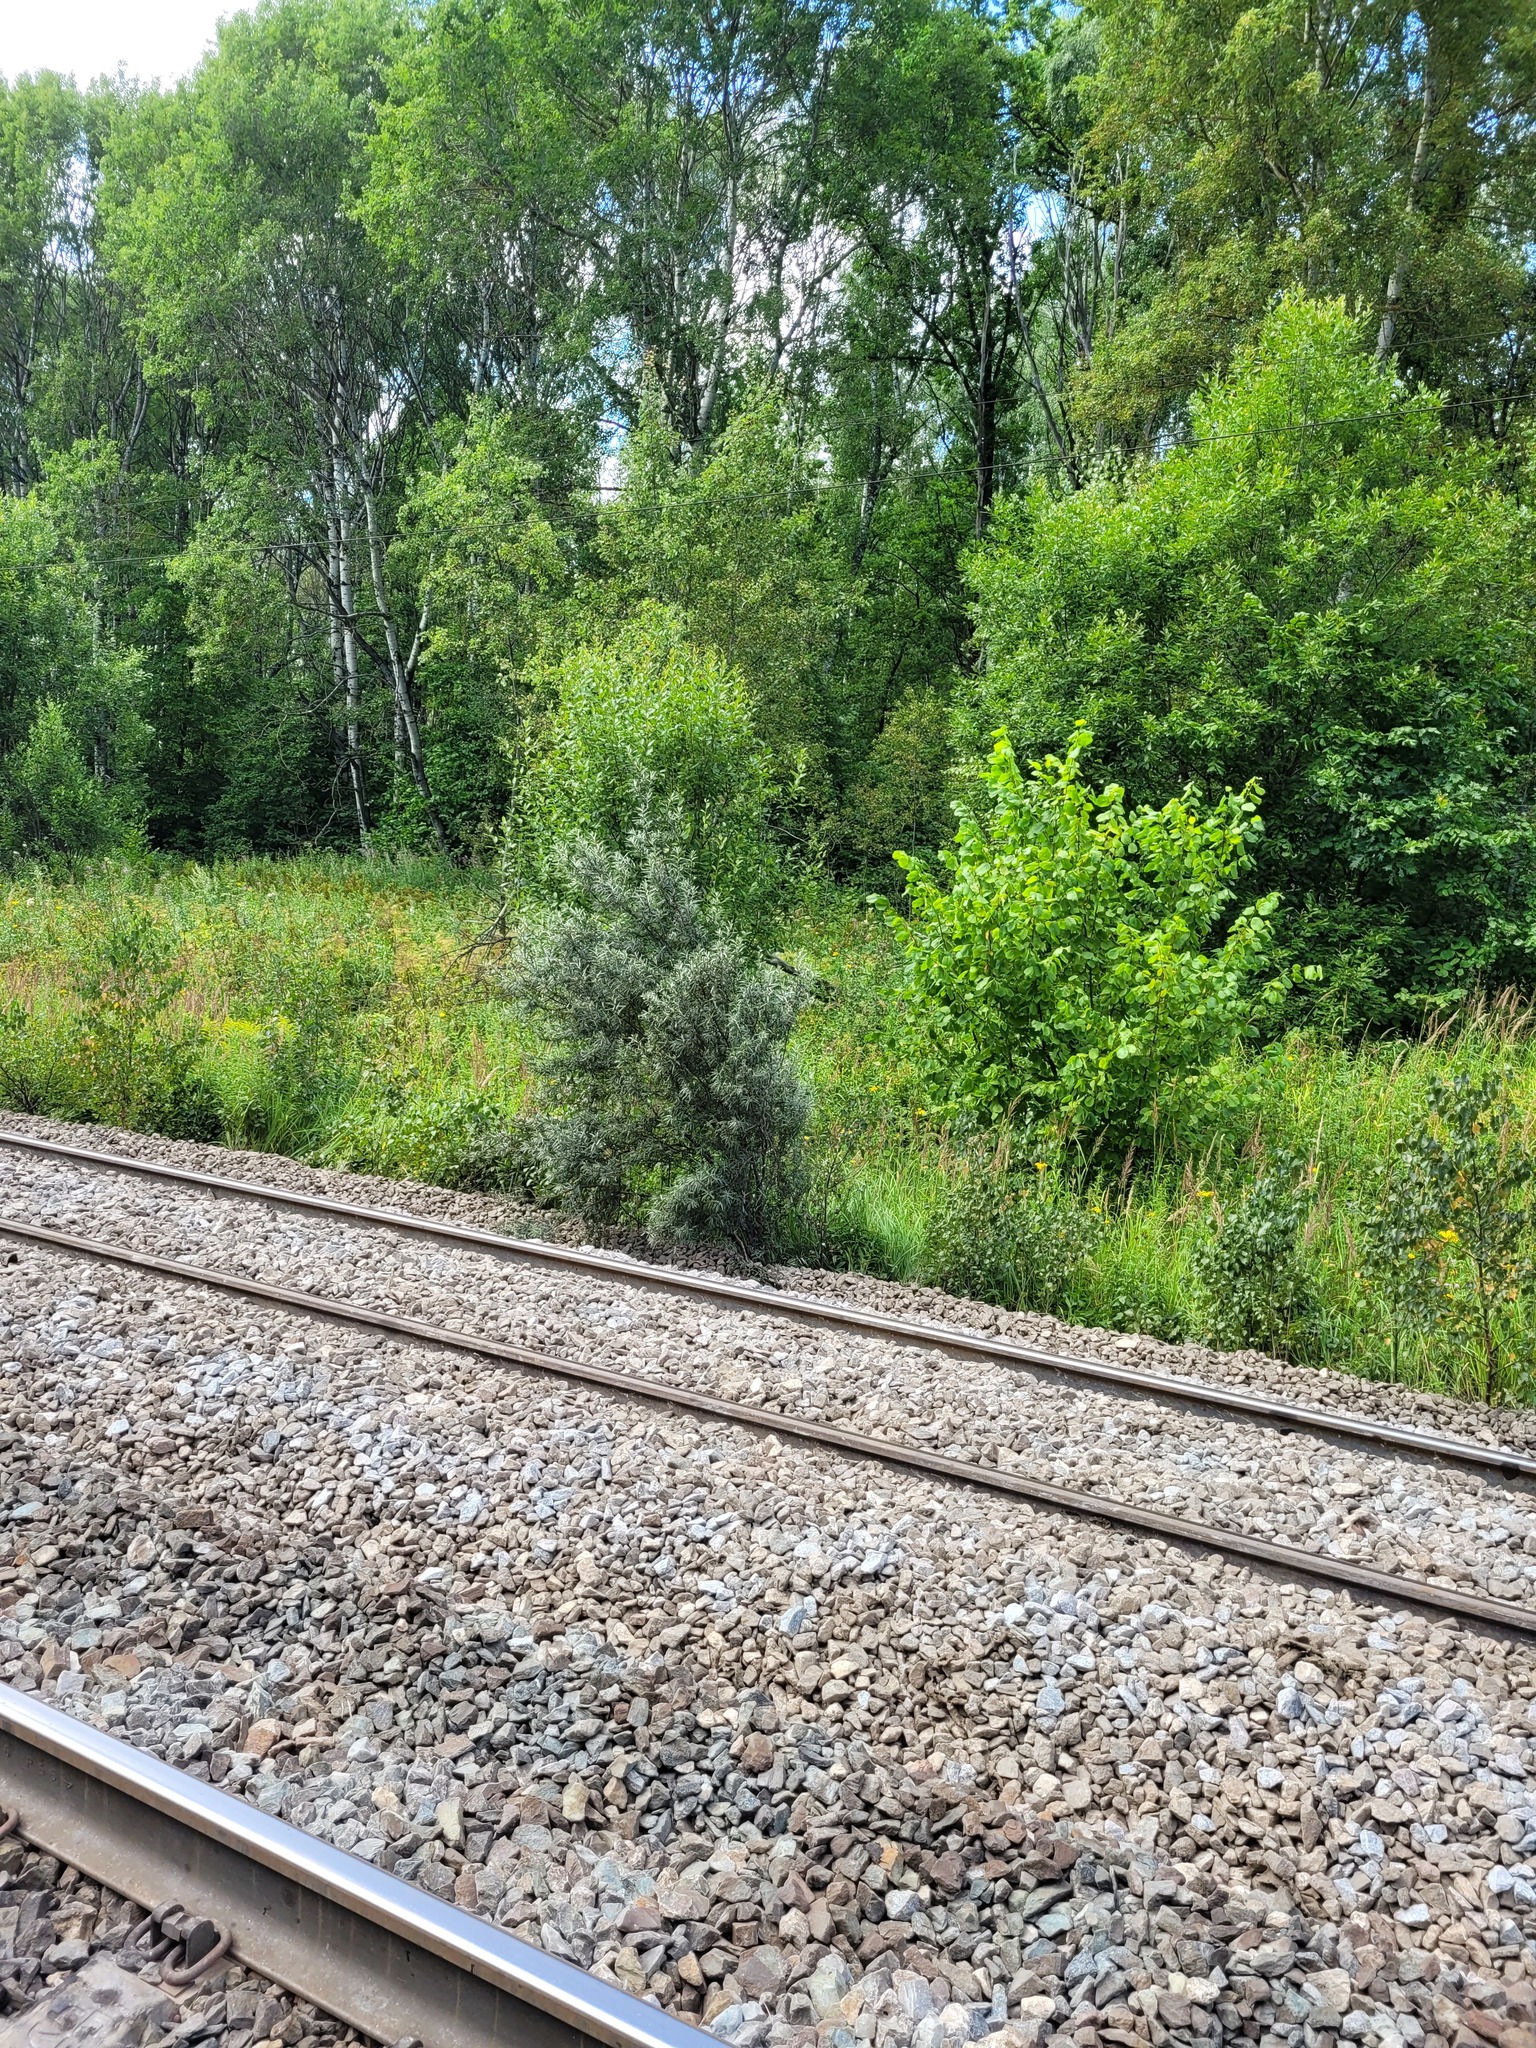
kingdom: Plantae
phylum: Tracheophyta
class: Magnoliopsida
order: Rosales
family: Elaeagnaceae
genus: Hippophae
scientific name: Hippophae rhamnoides
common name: Sea-buckthorn
